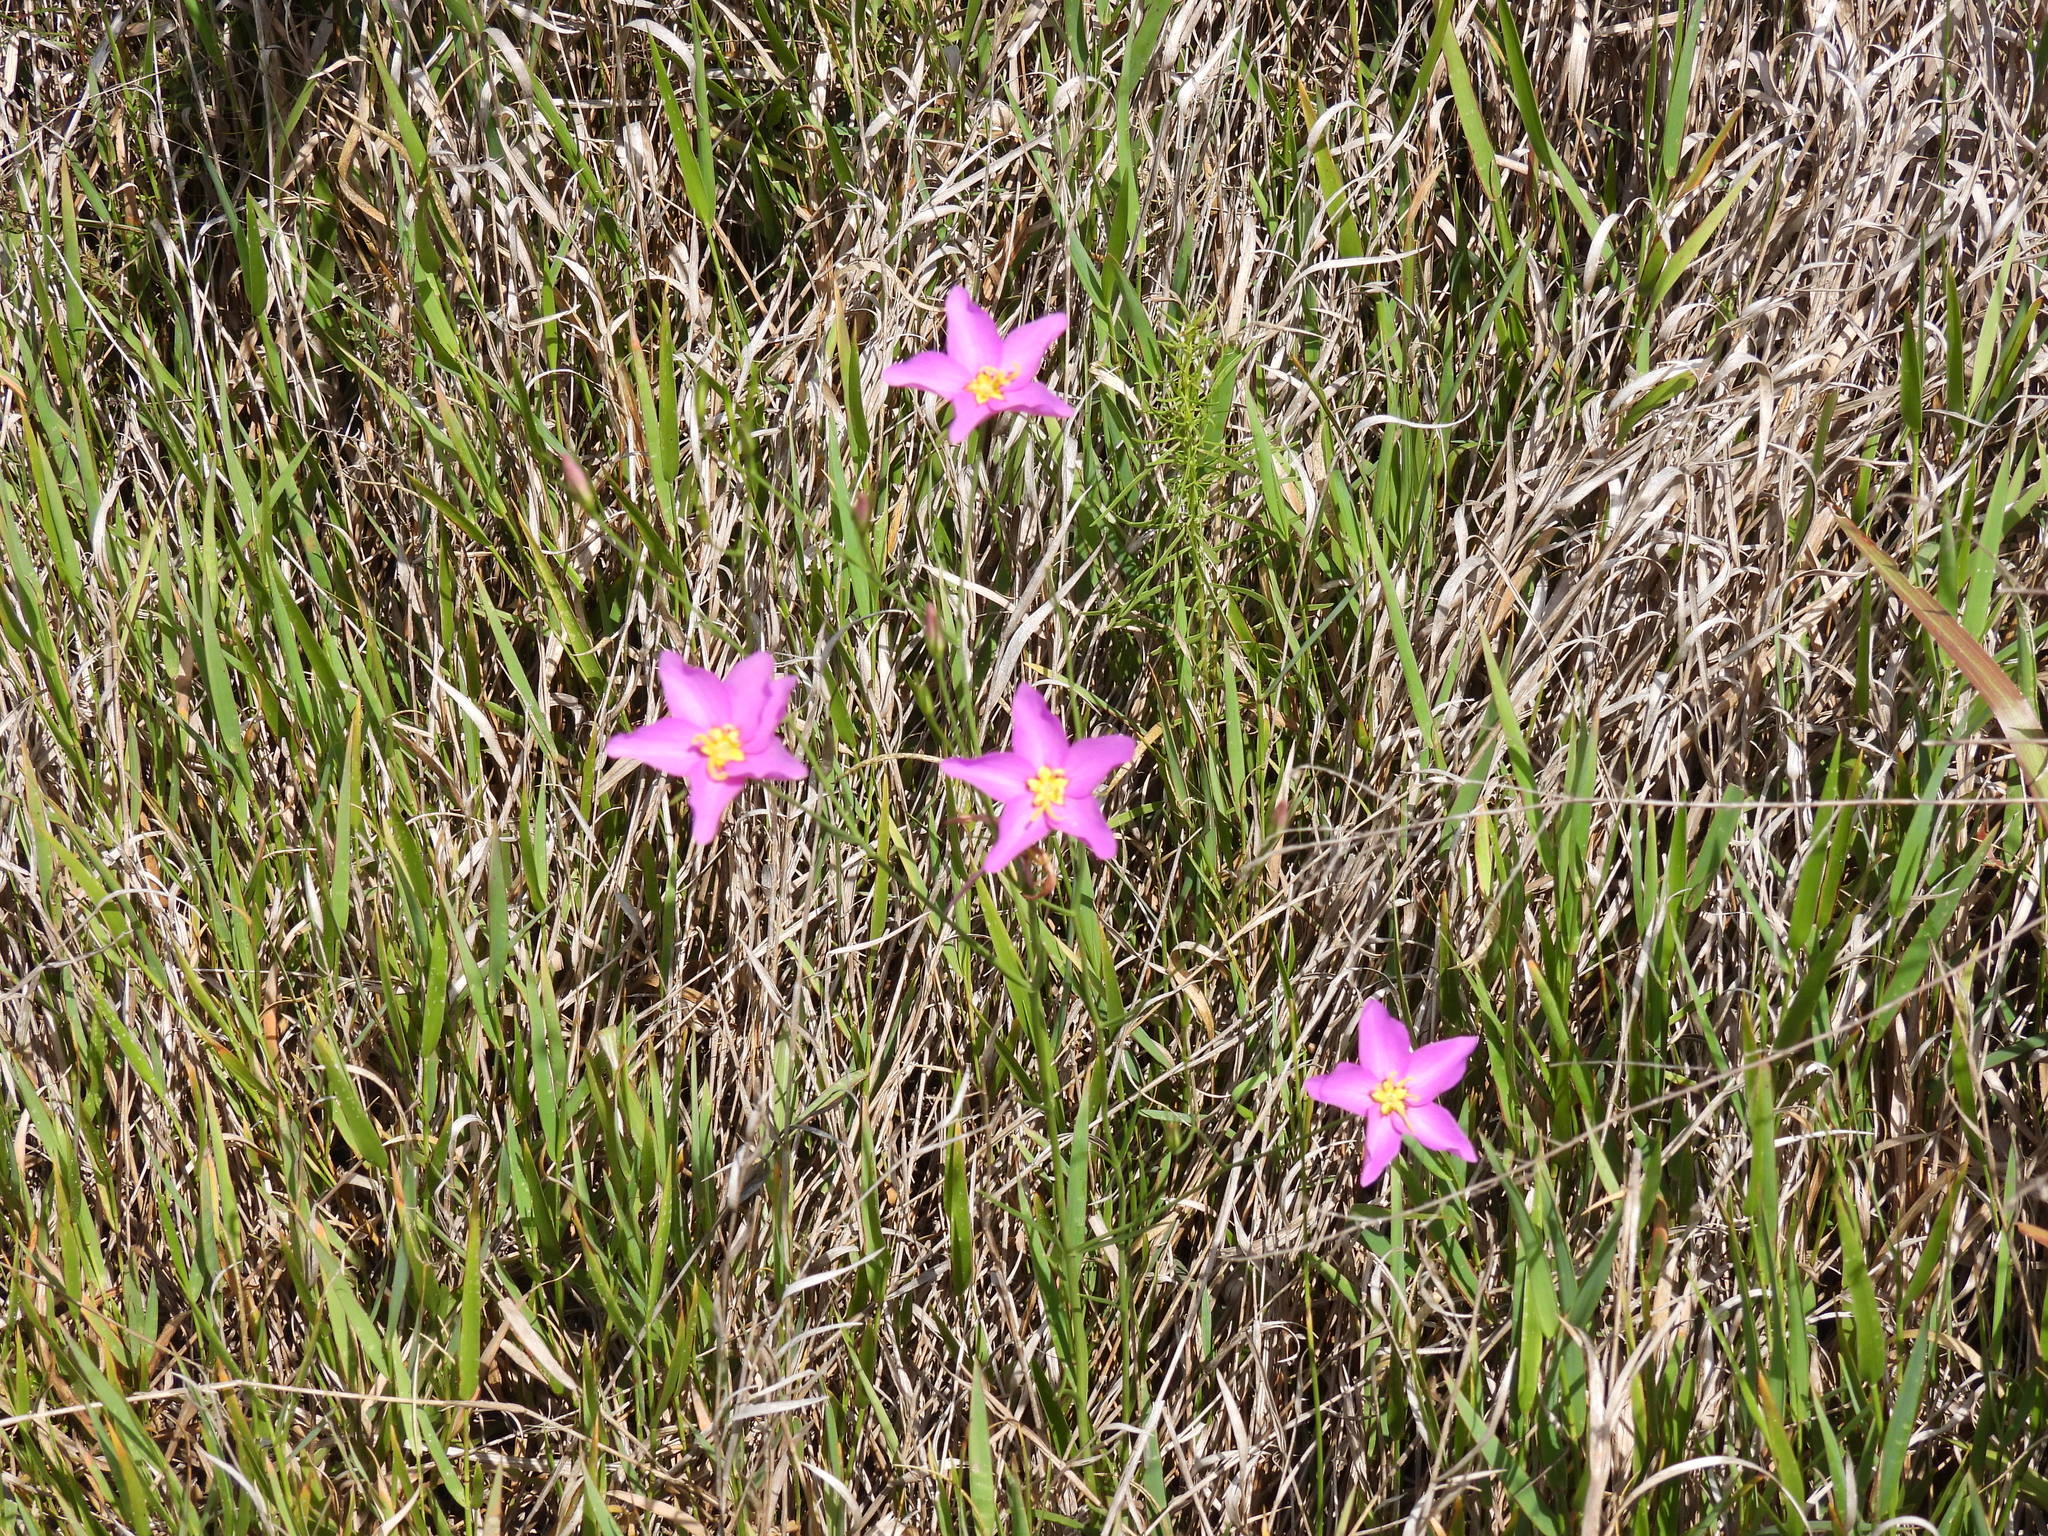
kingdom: Plantae
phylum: Tracheophyta
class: Magnoliopsida
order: Gentianales
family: Gentianaceae
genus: Sabatia
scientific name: Sabatia grandiflora
